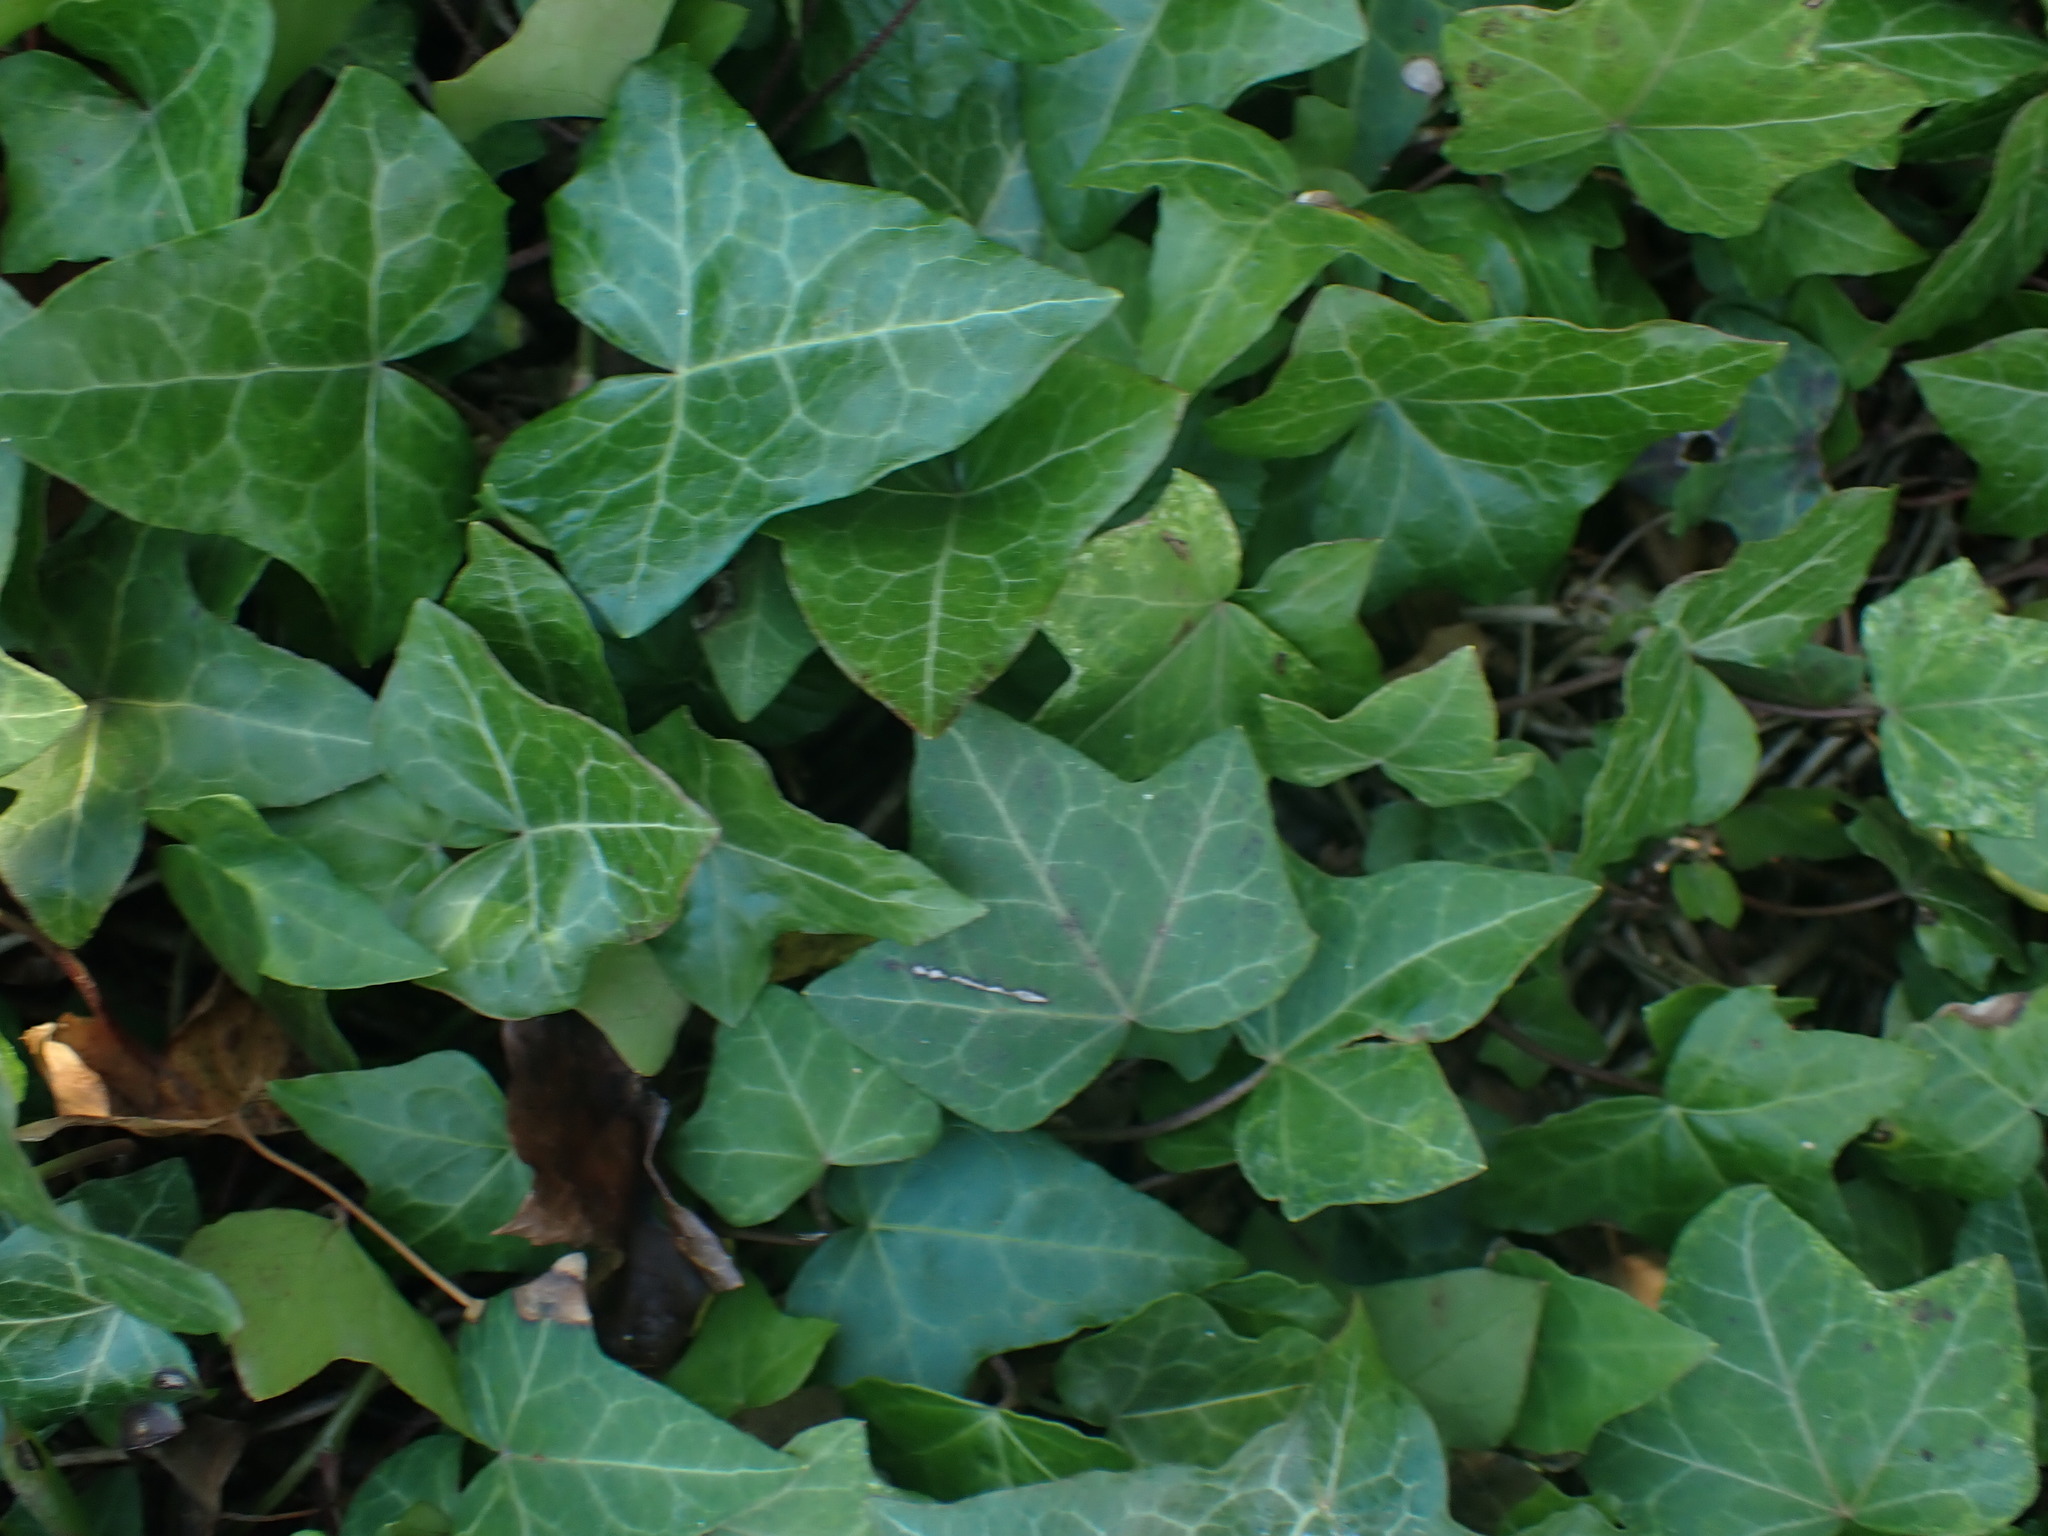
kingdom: Plantae
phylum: Tracheophyta
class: Magnoliopsida
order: Apiales
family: Araliaceae
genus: Hedera
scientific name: Hedera helix
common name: Ivy
